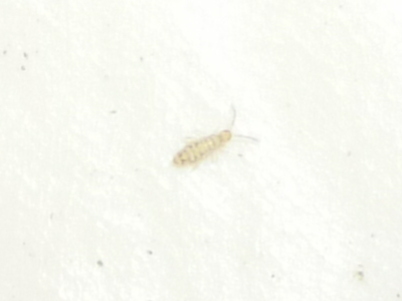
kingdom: Animalia
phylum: Arthropoda
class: Collembola
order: Entomobryomorpha
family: Entomobryidae
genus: Entomobrya
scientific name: Entomobrya multifasciata
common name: Springtail
